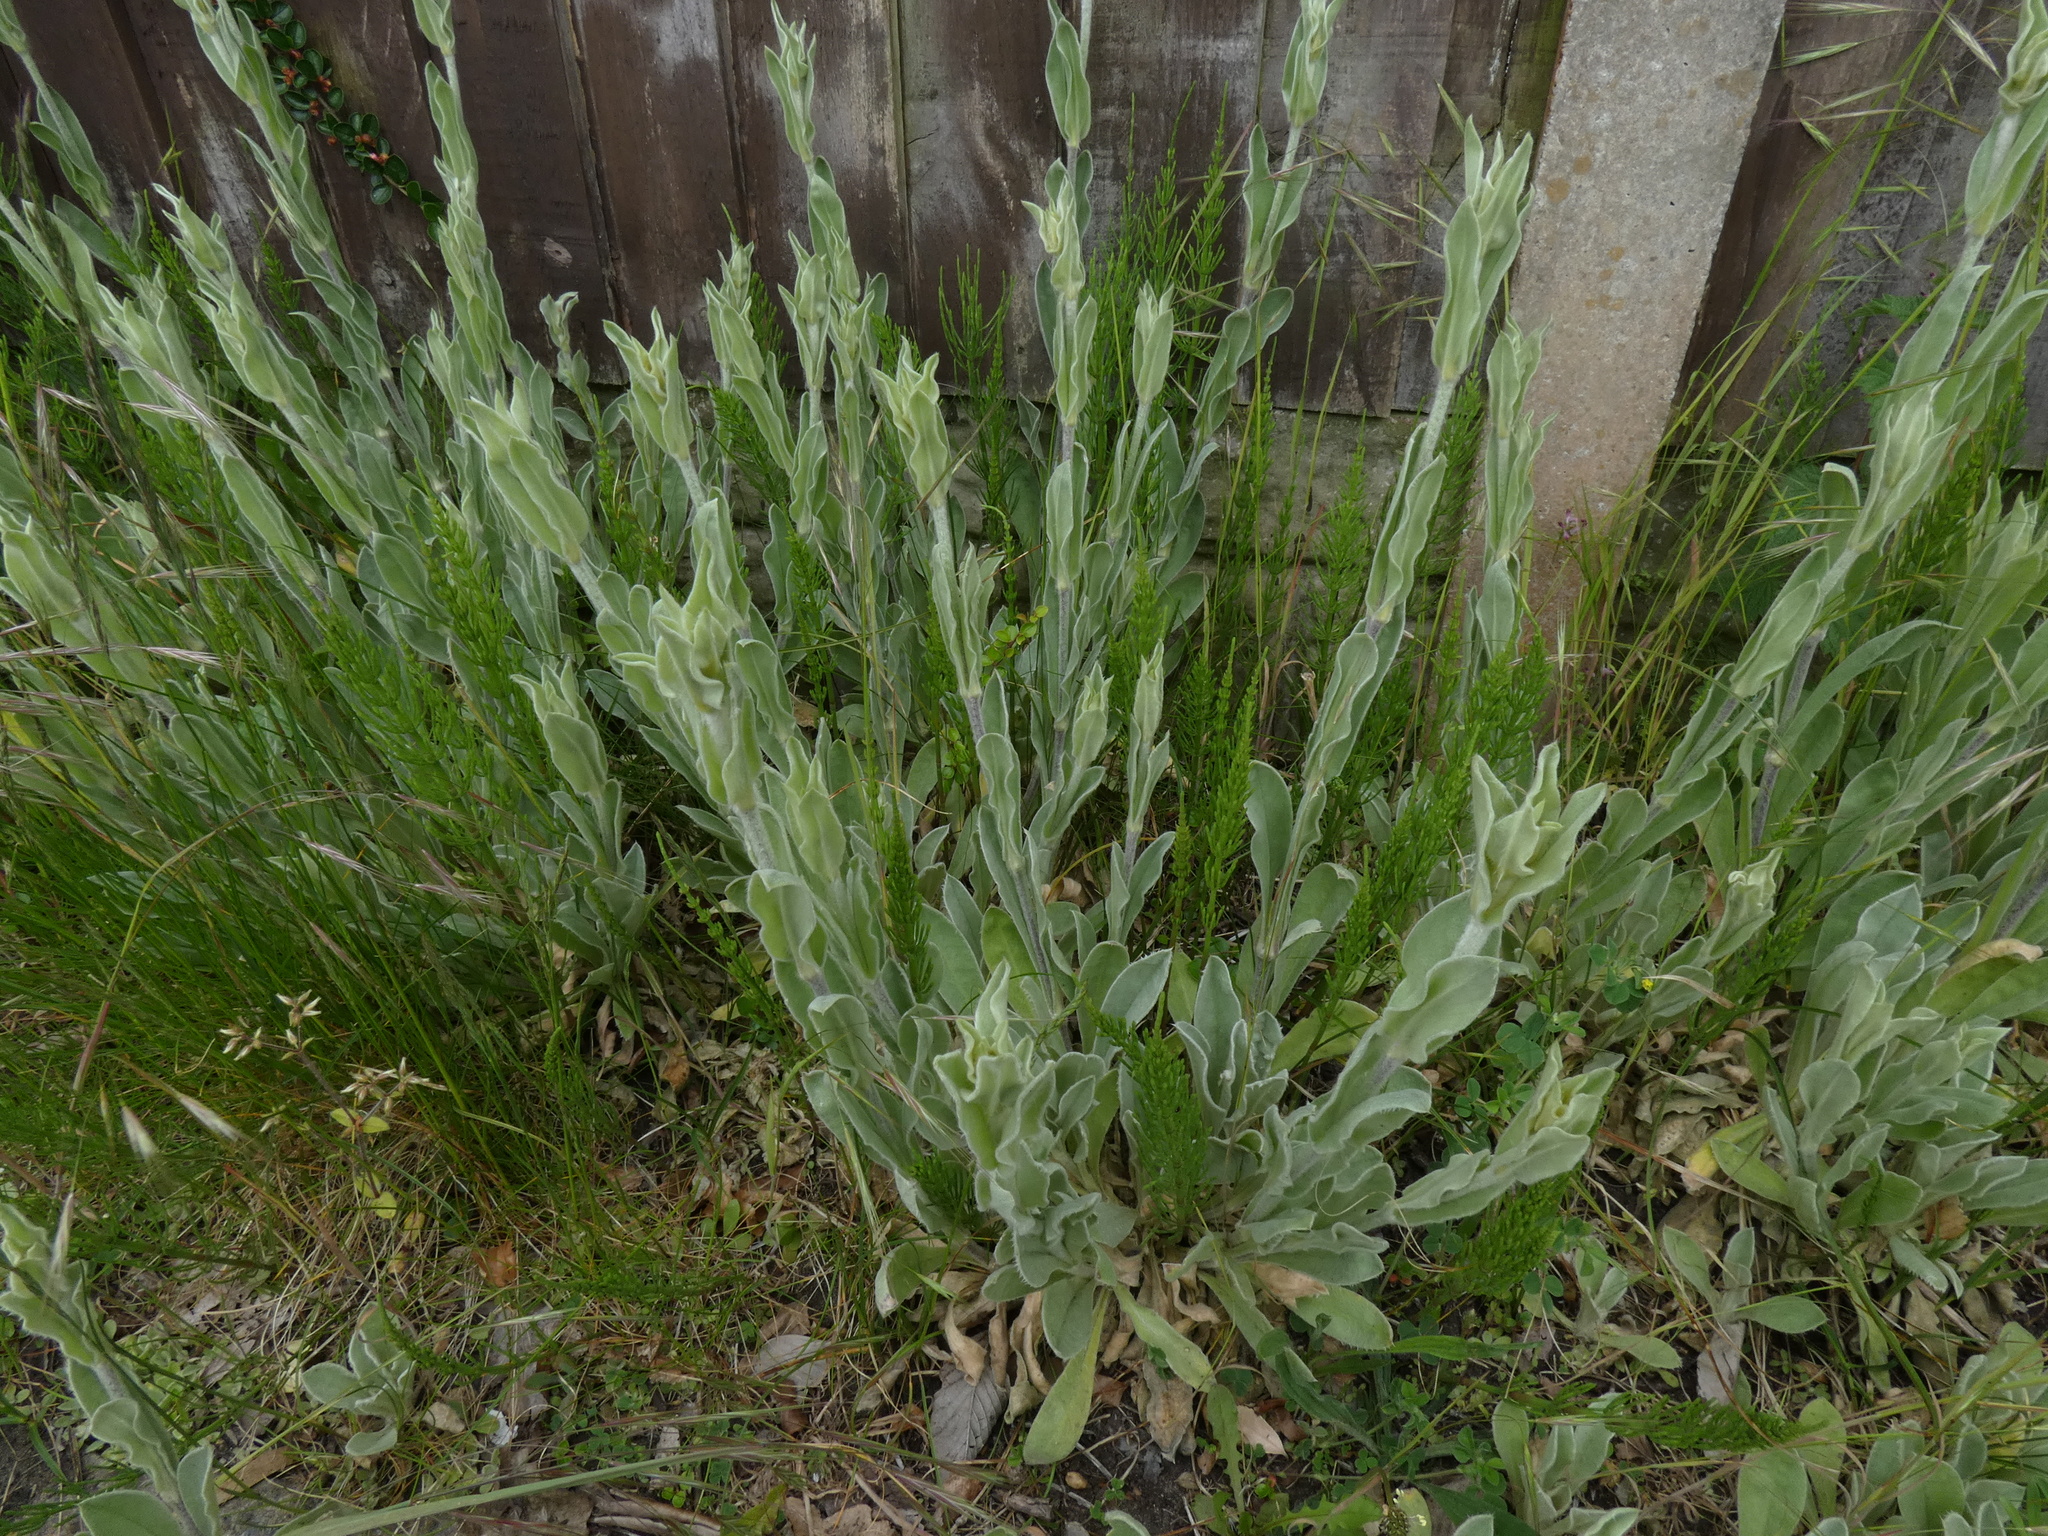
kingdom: Plantae
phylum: Tracheophyta
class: Magnoliopsida
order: Caryophyllales
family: Caryophyllaceae
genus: Silene
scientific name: Silene coronaria
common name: Rose campion
